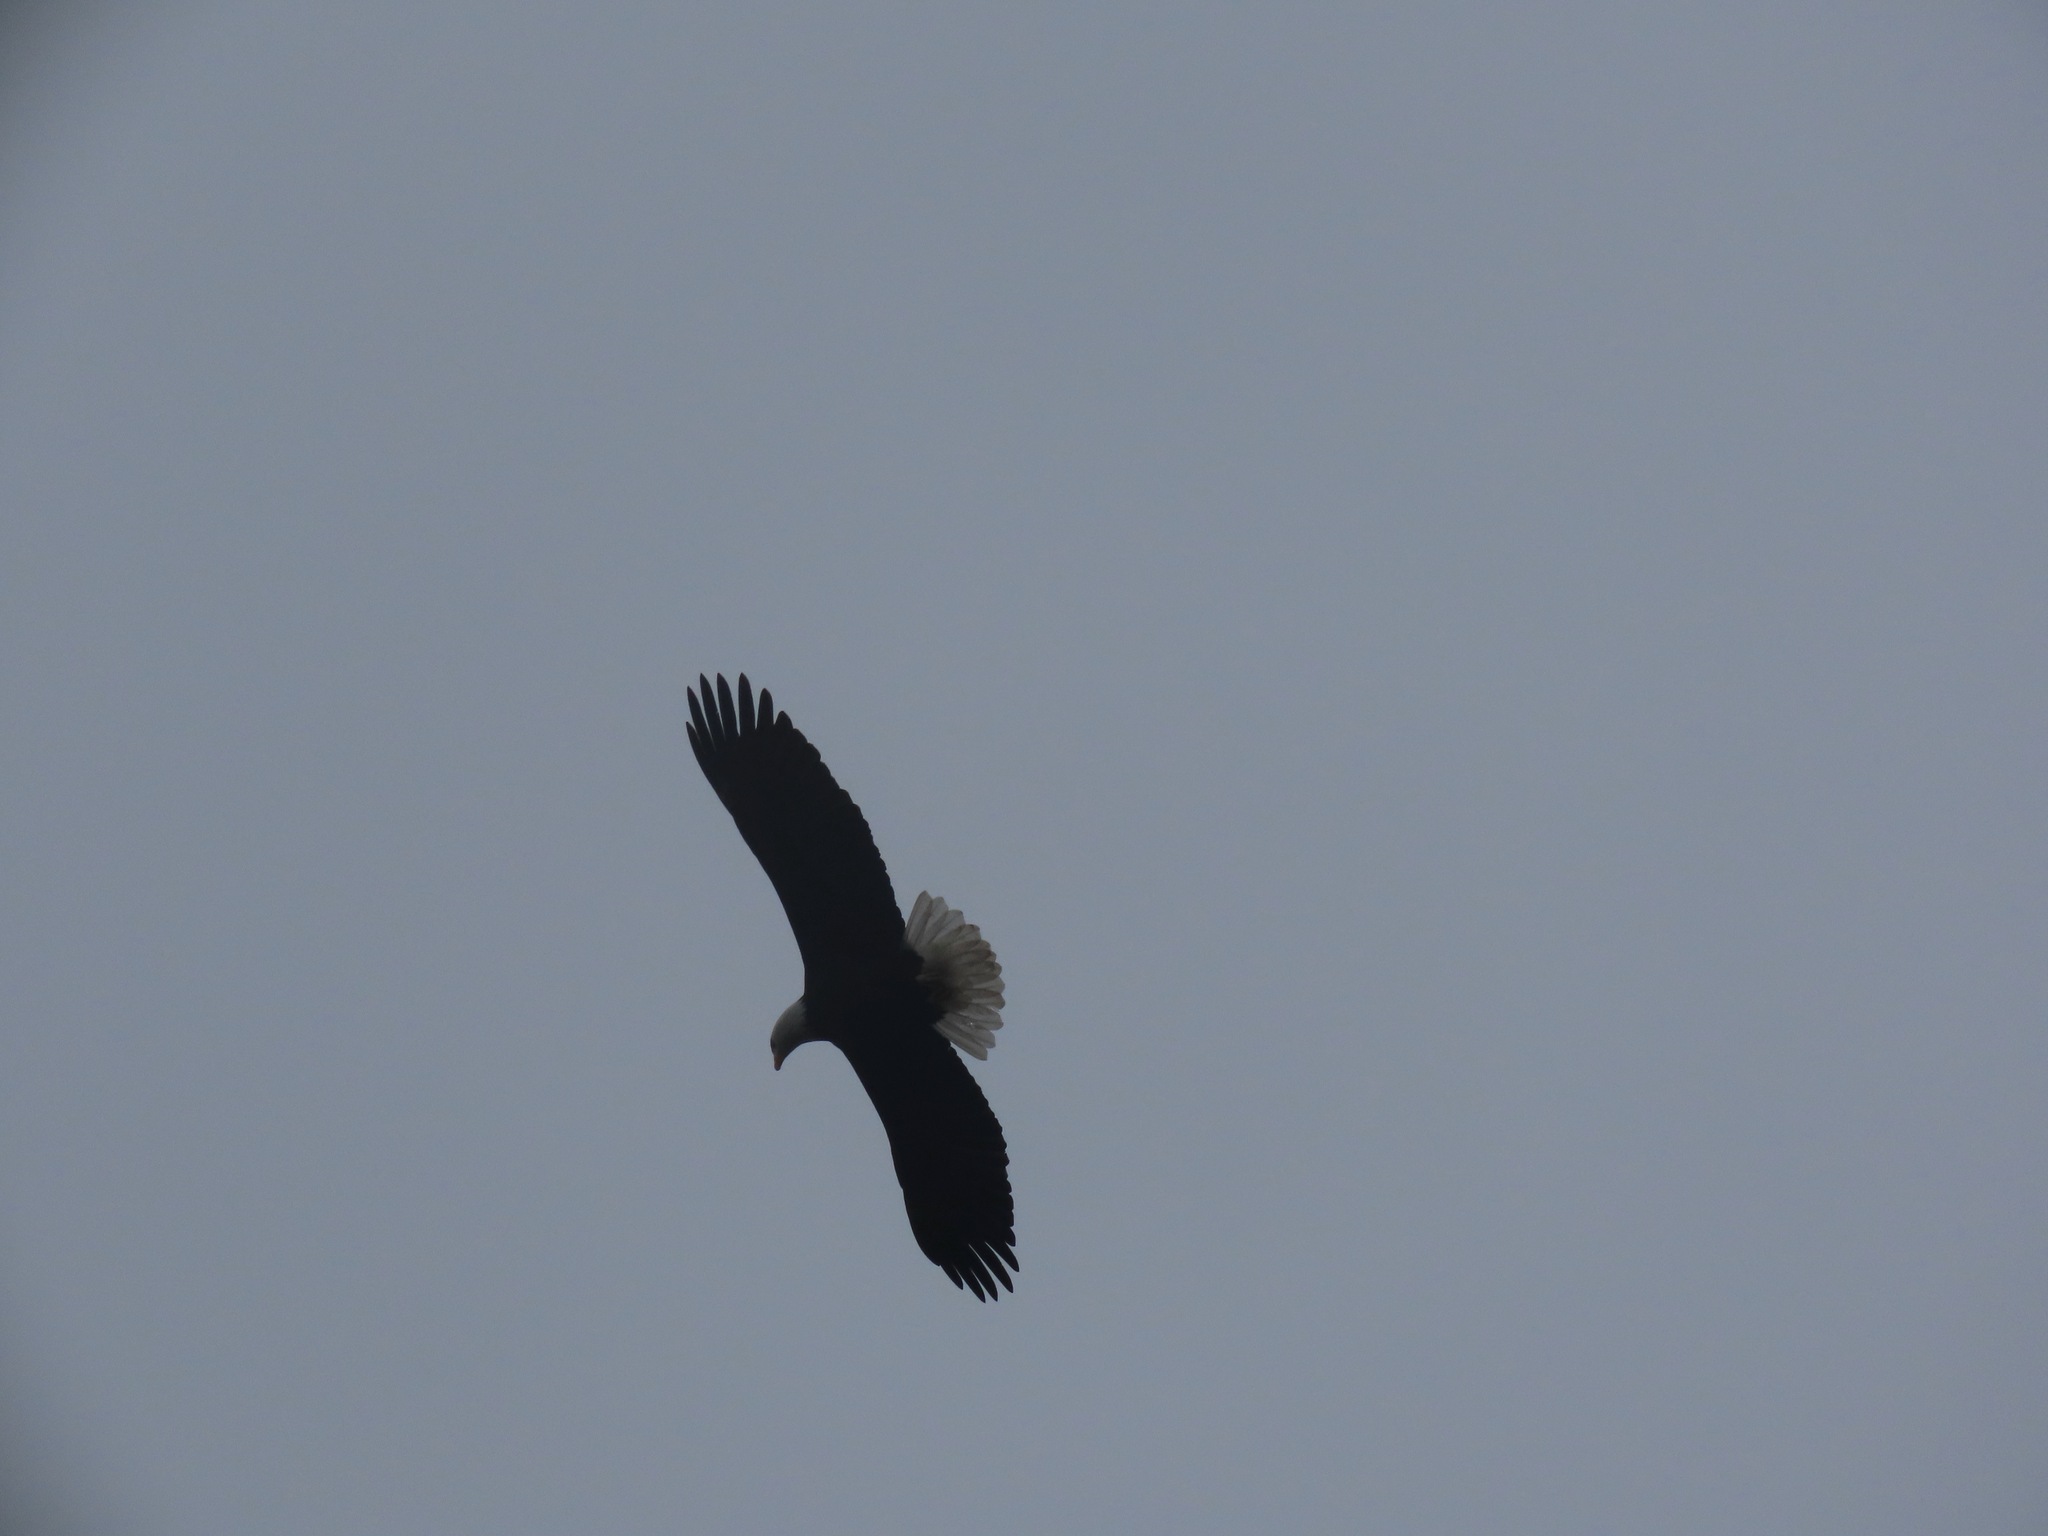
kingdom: Animalia
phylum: Chordata
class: Aves
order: Accipitriformes
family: Accipitridae
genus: Haliaeetus
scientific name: Haliaeetus leucocephalus
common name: Bald eagle
